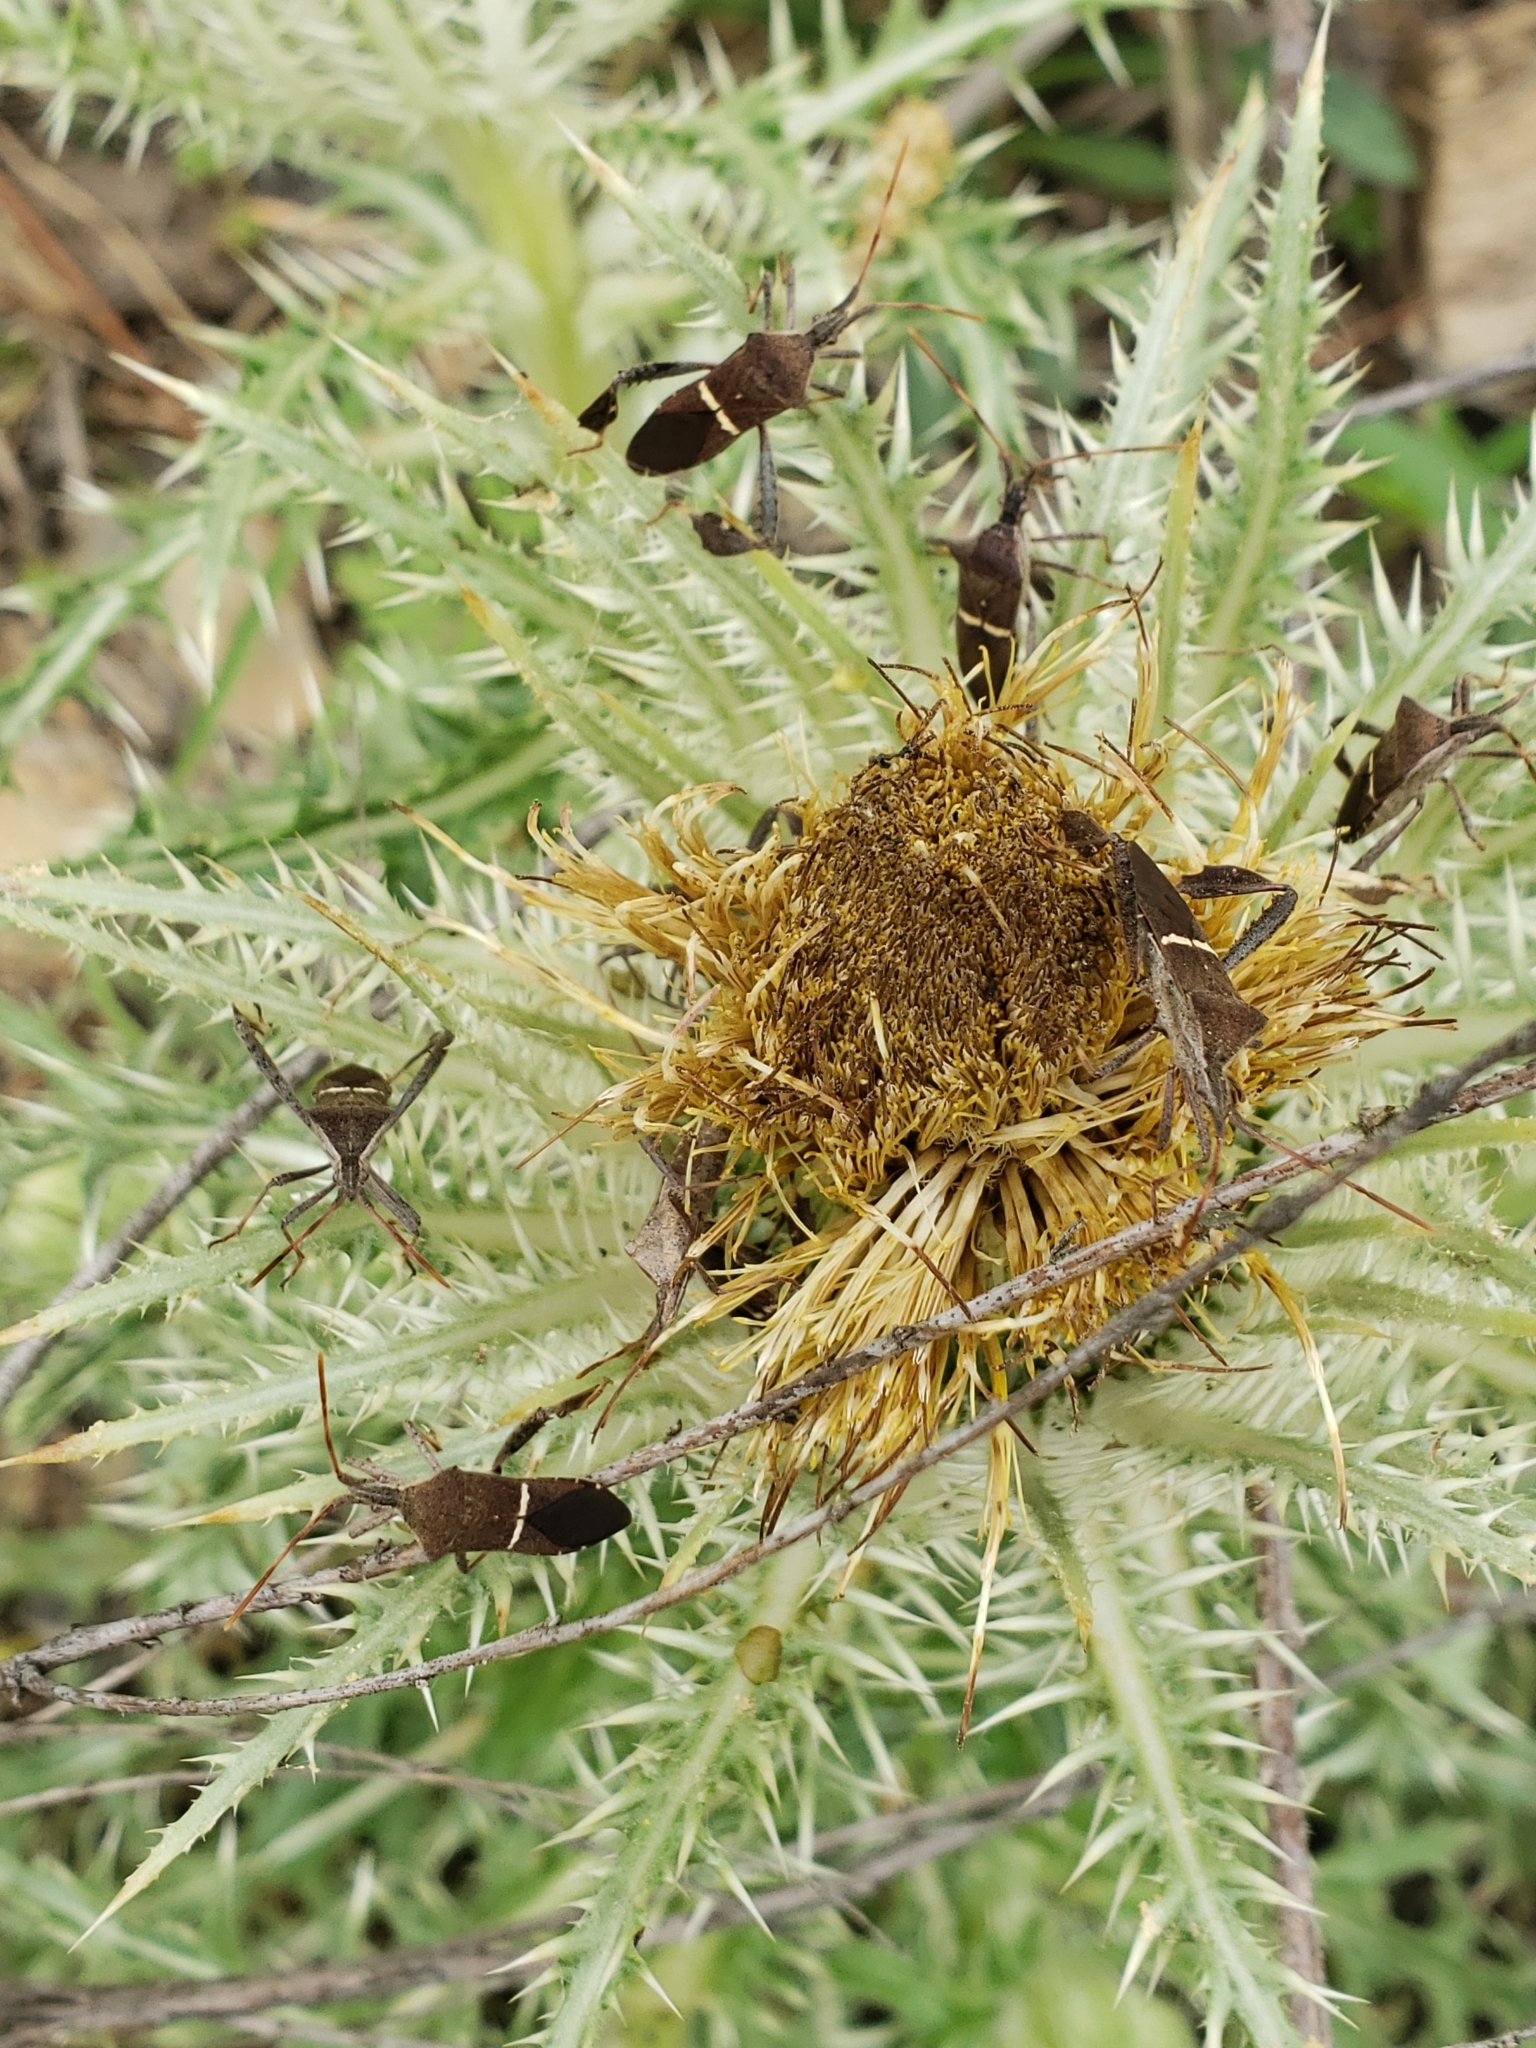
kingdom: Animalia
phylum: Arthropoda
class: Insecta
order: Hemiptera
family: Coreidae
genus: Leptoglossus
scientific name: Leptoglossus phyllopus
